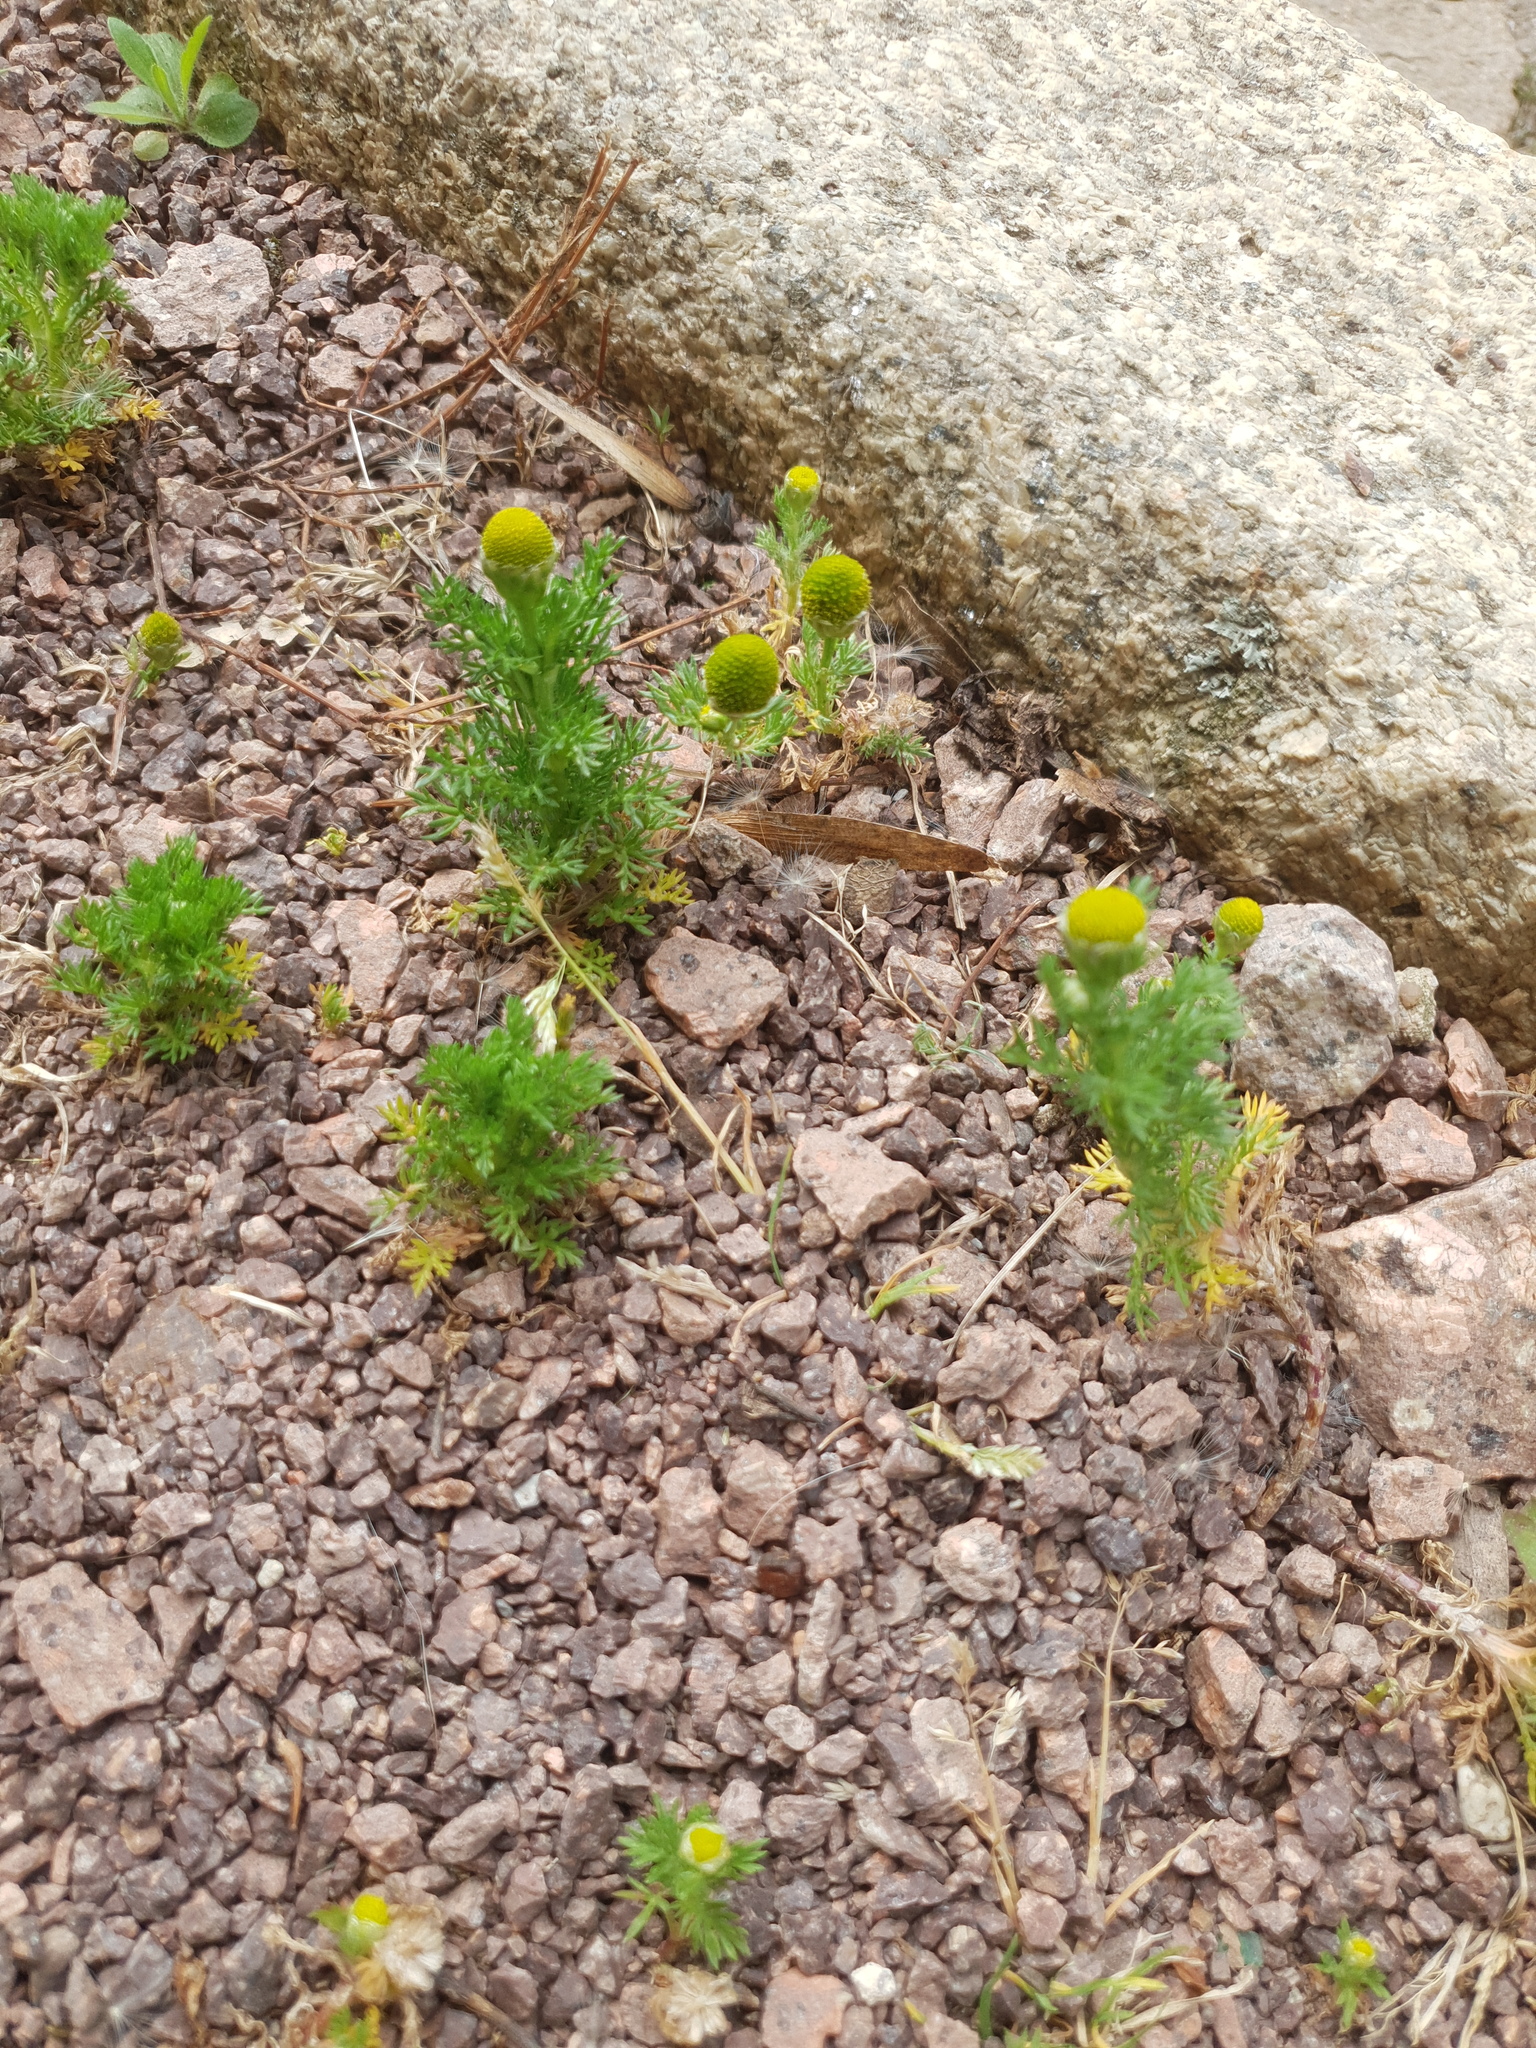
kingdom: Plantae
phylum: Tracheophyta
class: Magnoliopsida
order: Asterales
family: Asteraceae
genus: Matricaria
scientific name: Matricaria discoidea
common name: Disc mayweed
